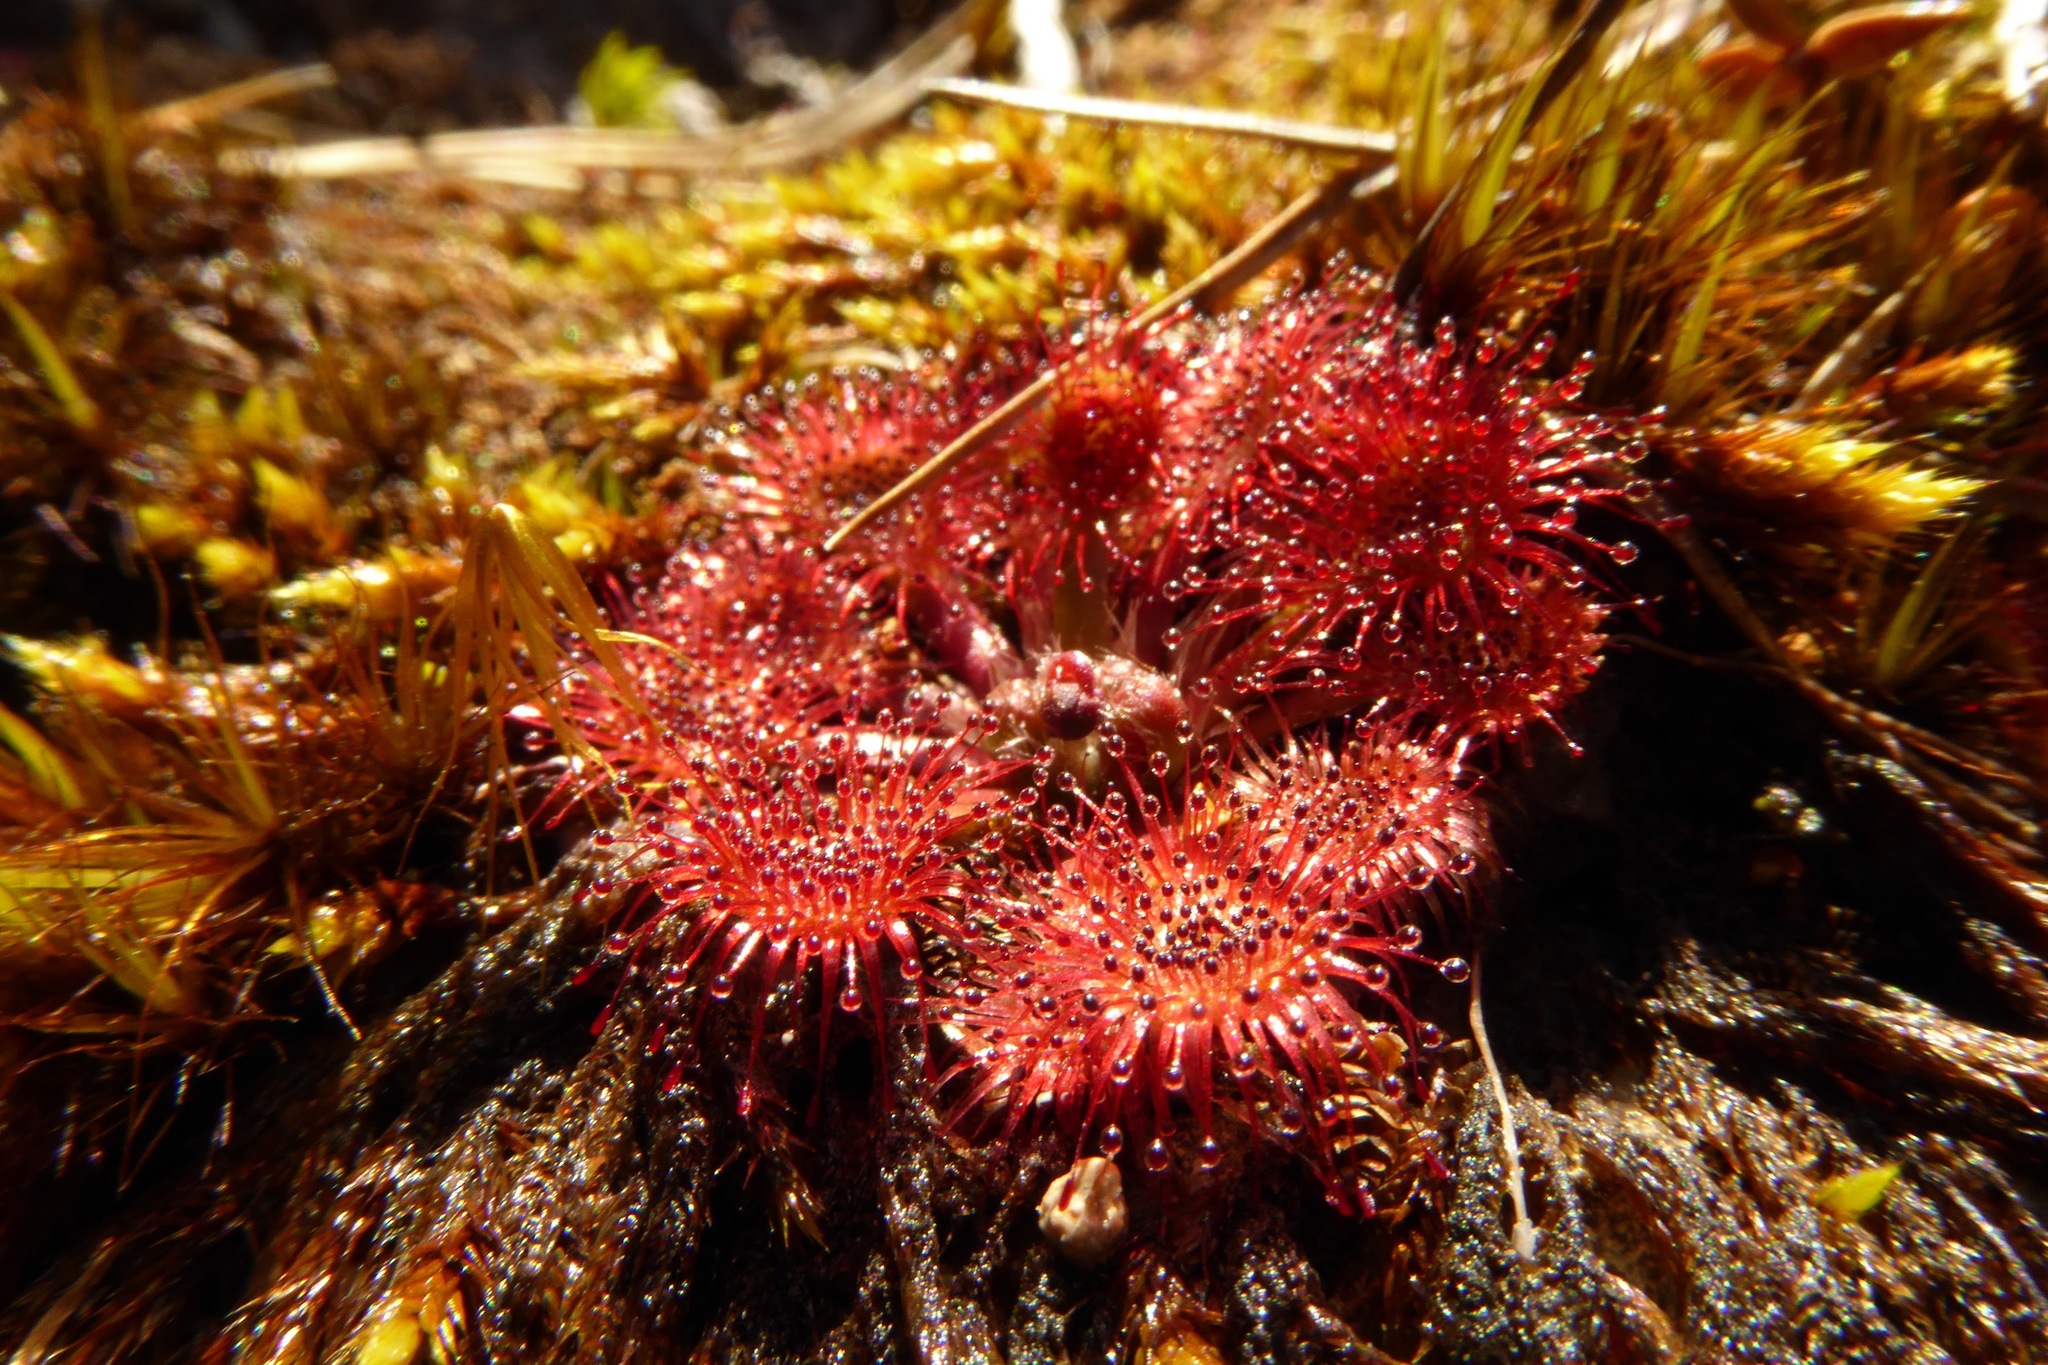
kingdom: Plantae
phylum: Tracheophyta
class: Magnoliopsida
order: Caryophyllales
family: Droseraceae
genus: Drosera
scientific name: Drosera spatulata
